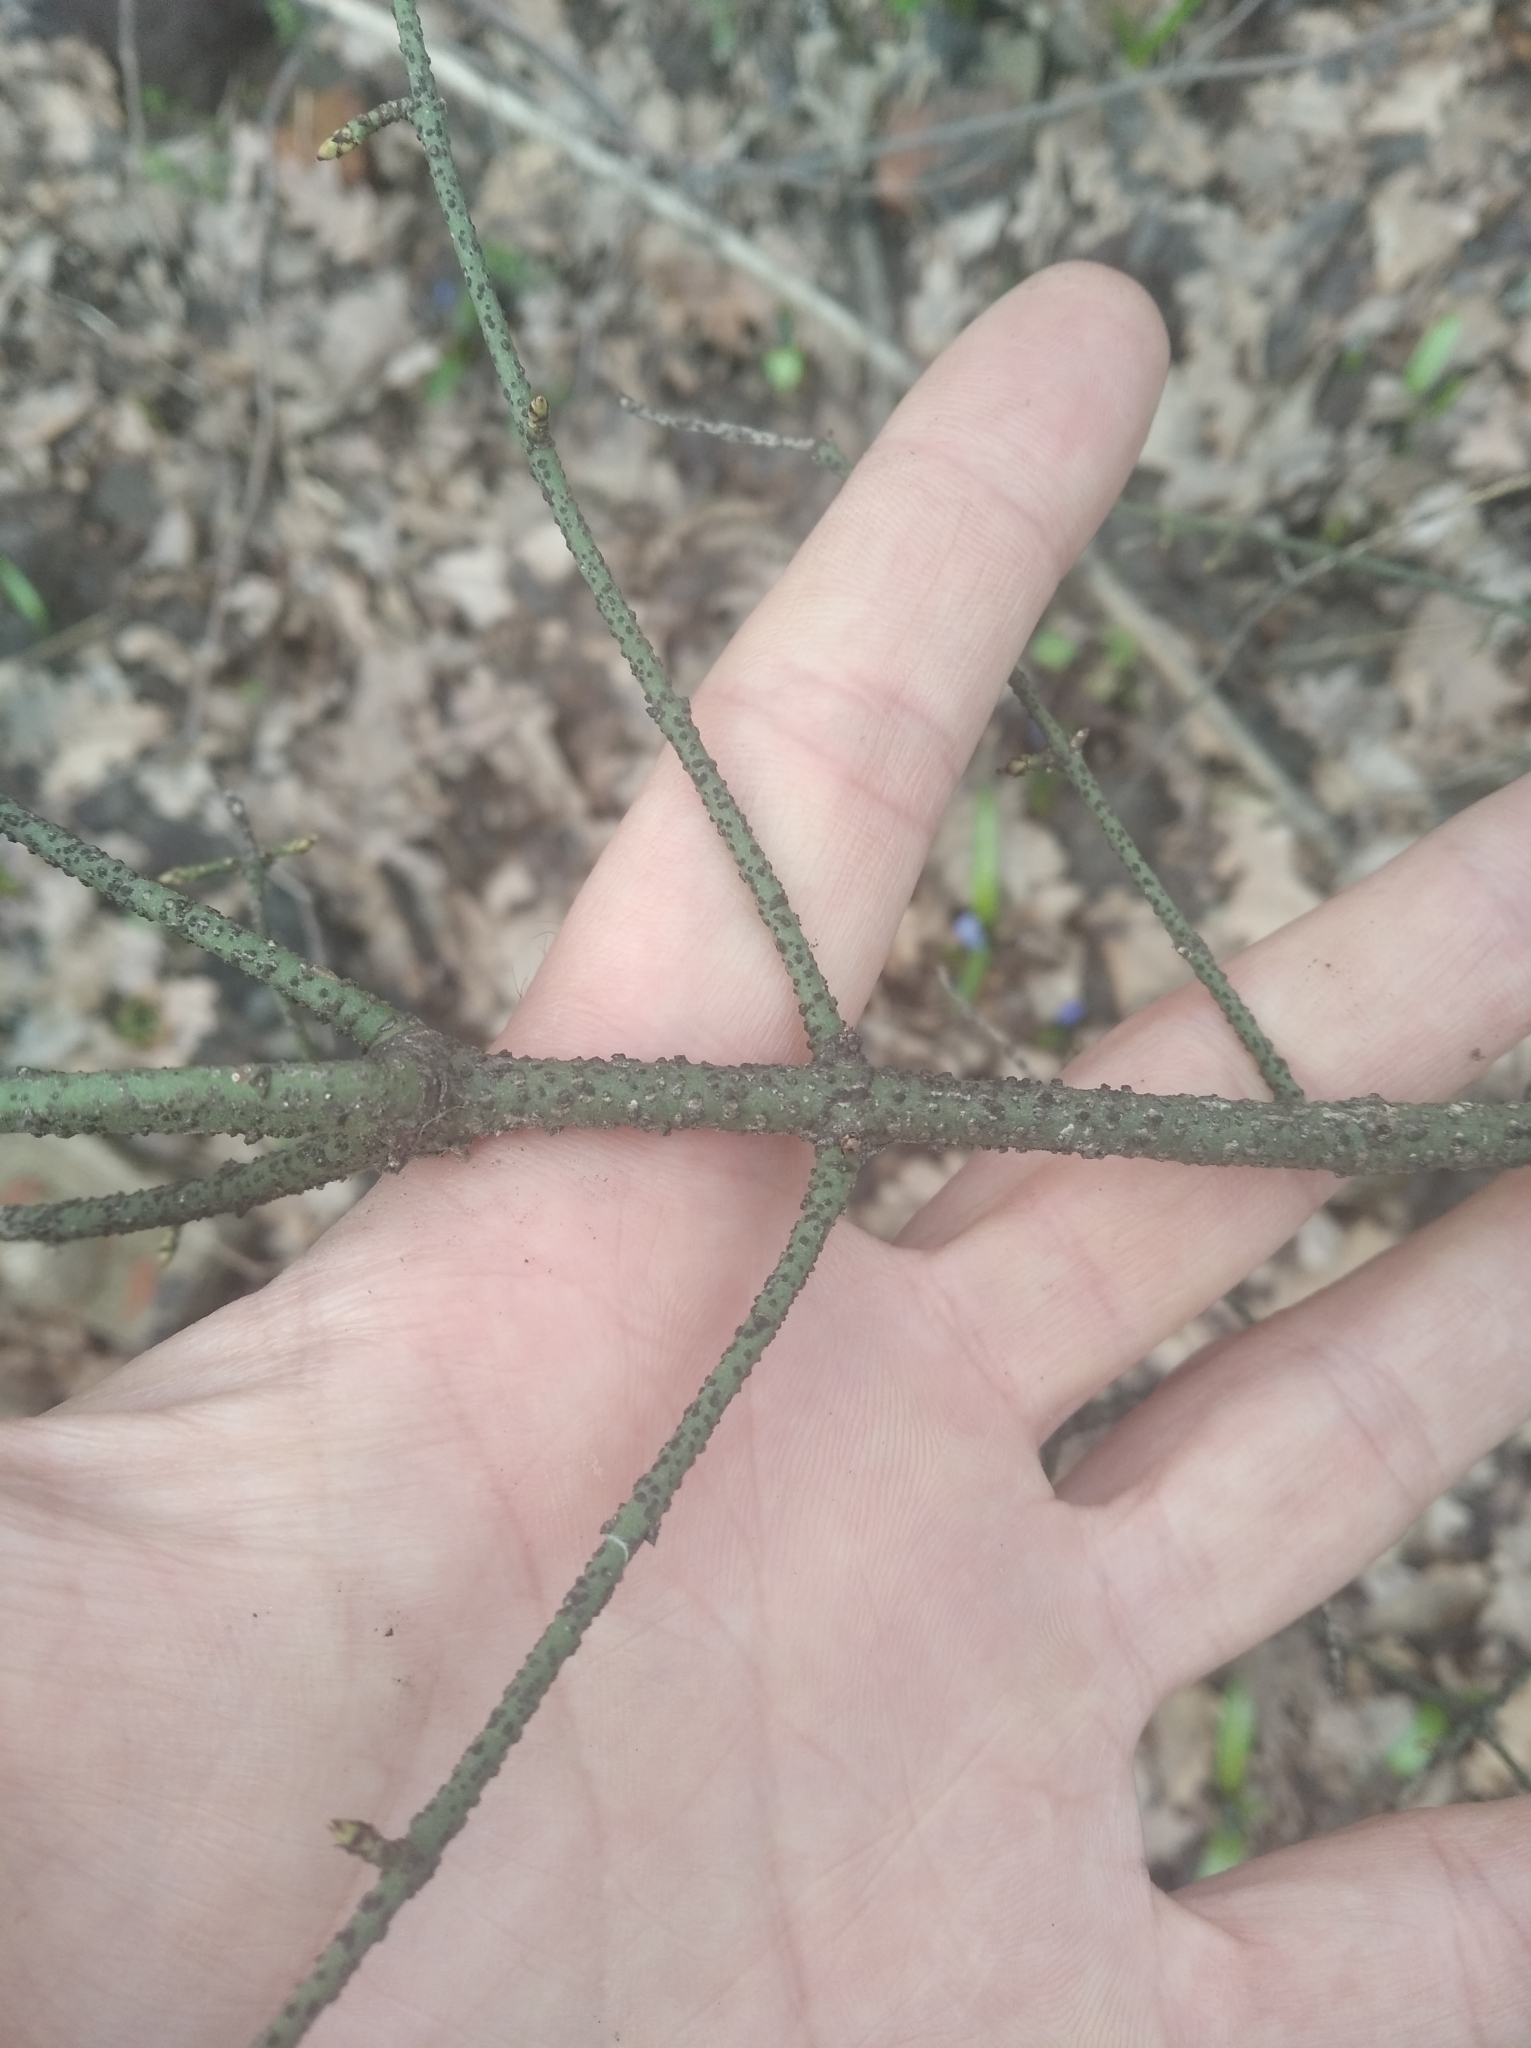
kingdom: Plantae
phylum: Tracheophyta
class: Magnoliopsida
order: Celastrales
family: Celastraceae
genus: Euonymus
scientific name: Euonymus verrucosus
